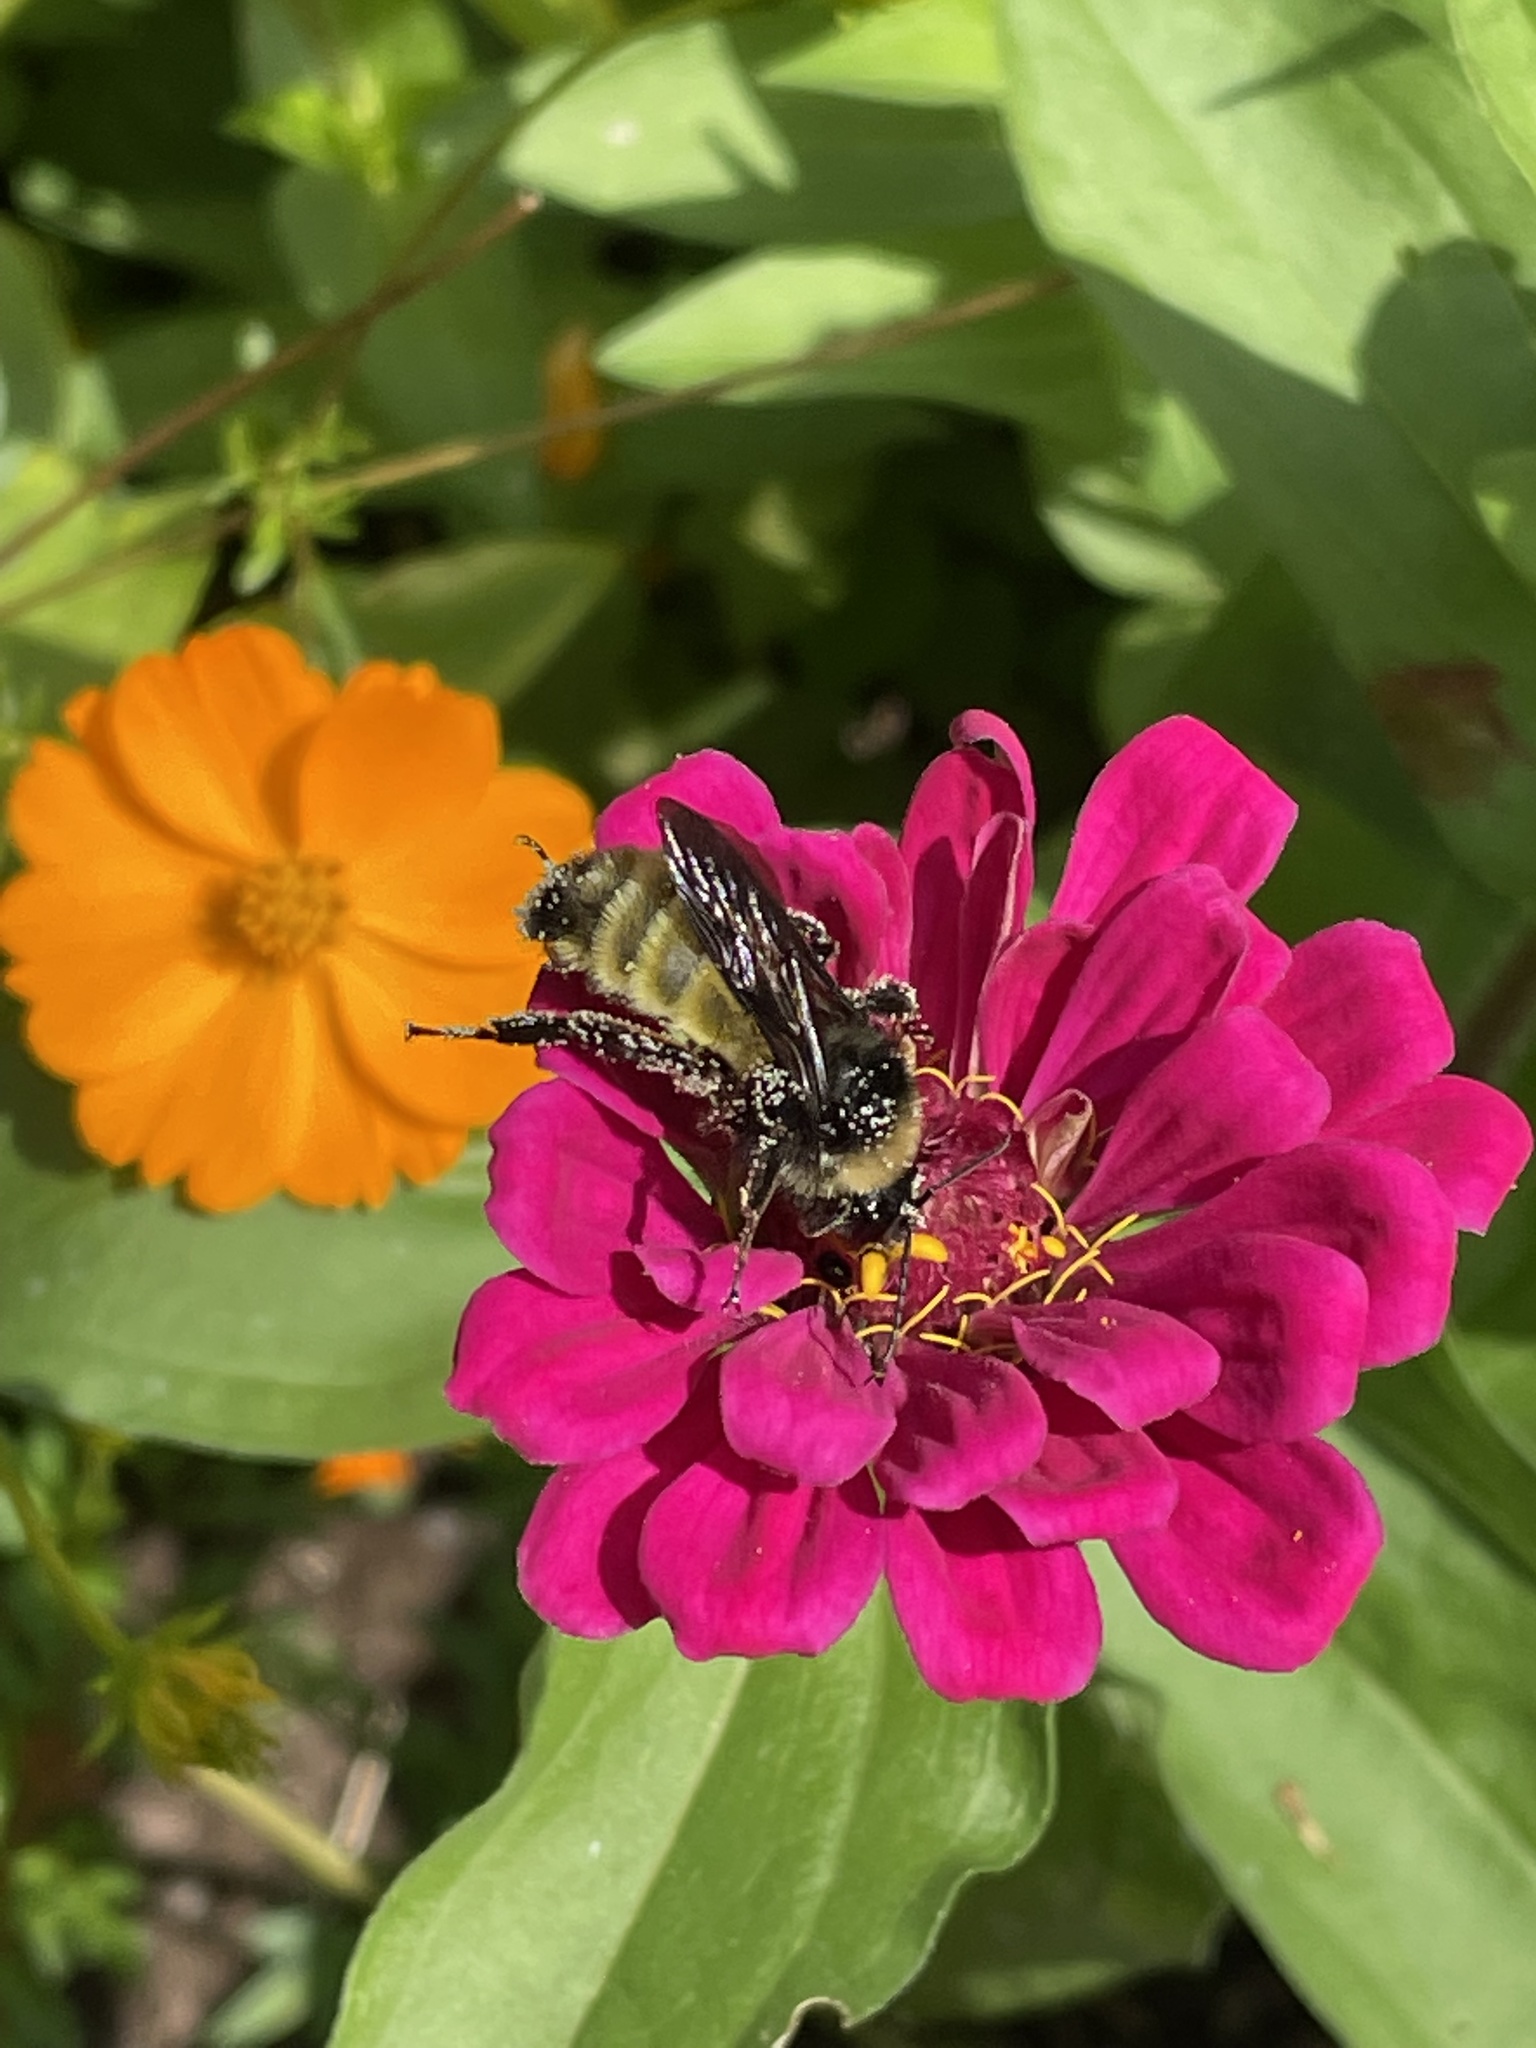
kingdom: Animalia
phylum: Arthropoda
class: Insecta
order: Hymenoptera
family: Apidae
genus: Bombus
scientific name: Bombus pensylvanicus
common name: Bumble bee
